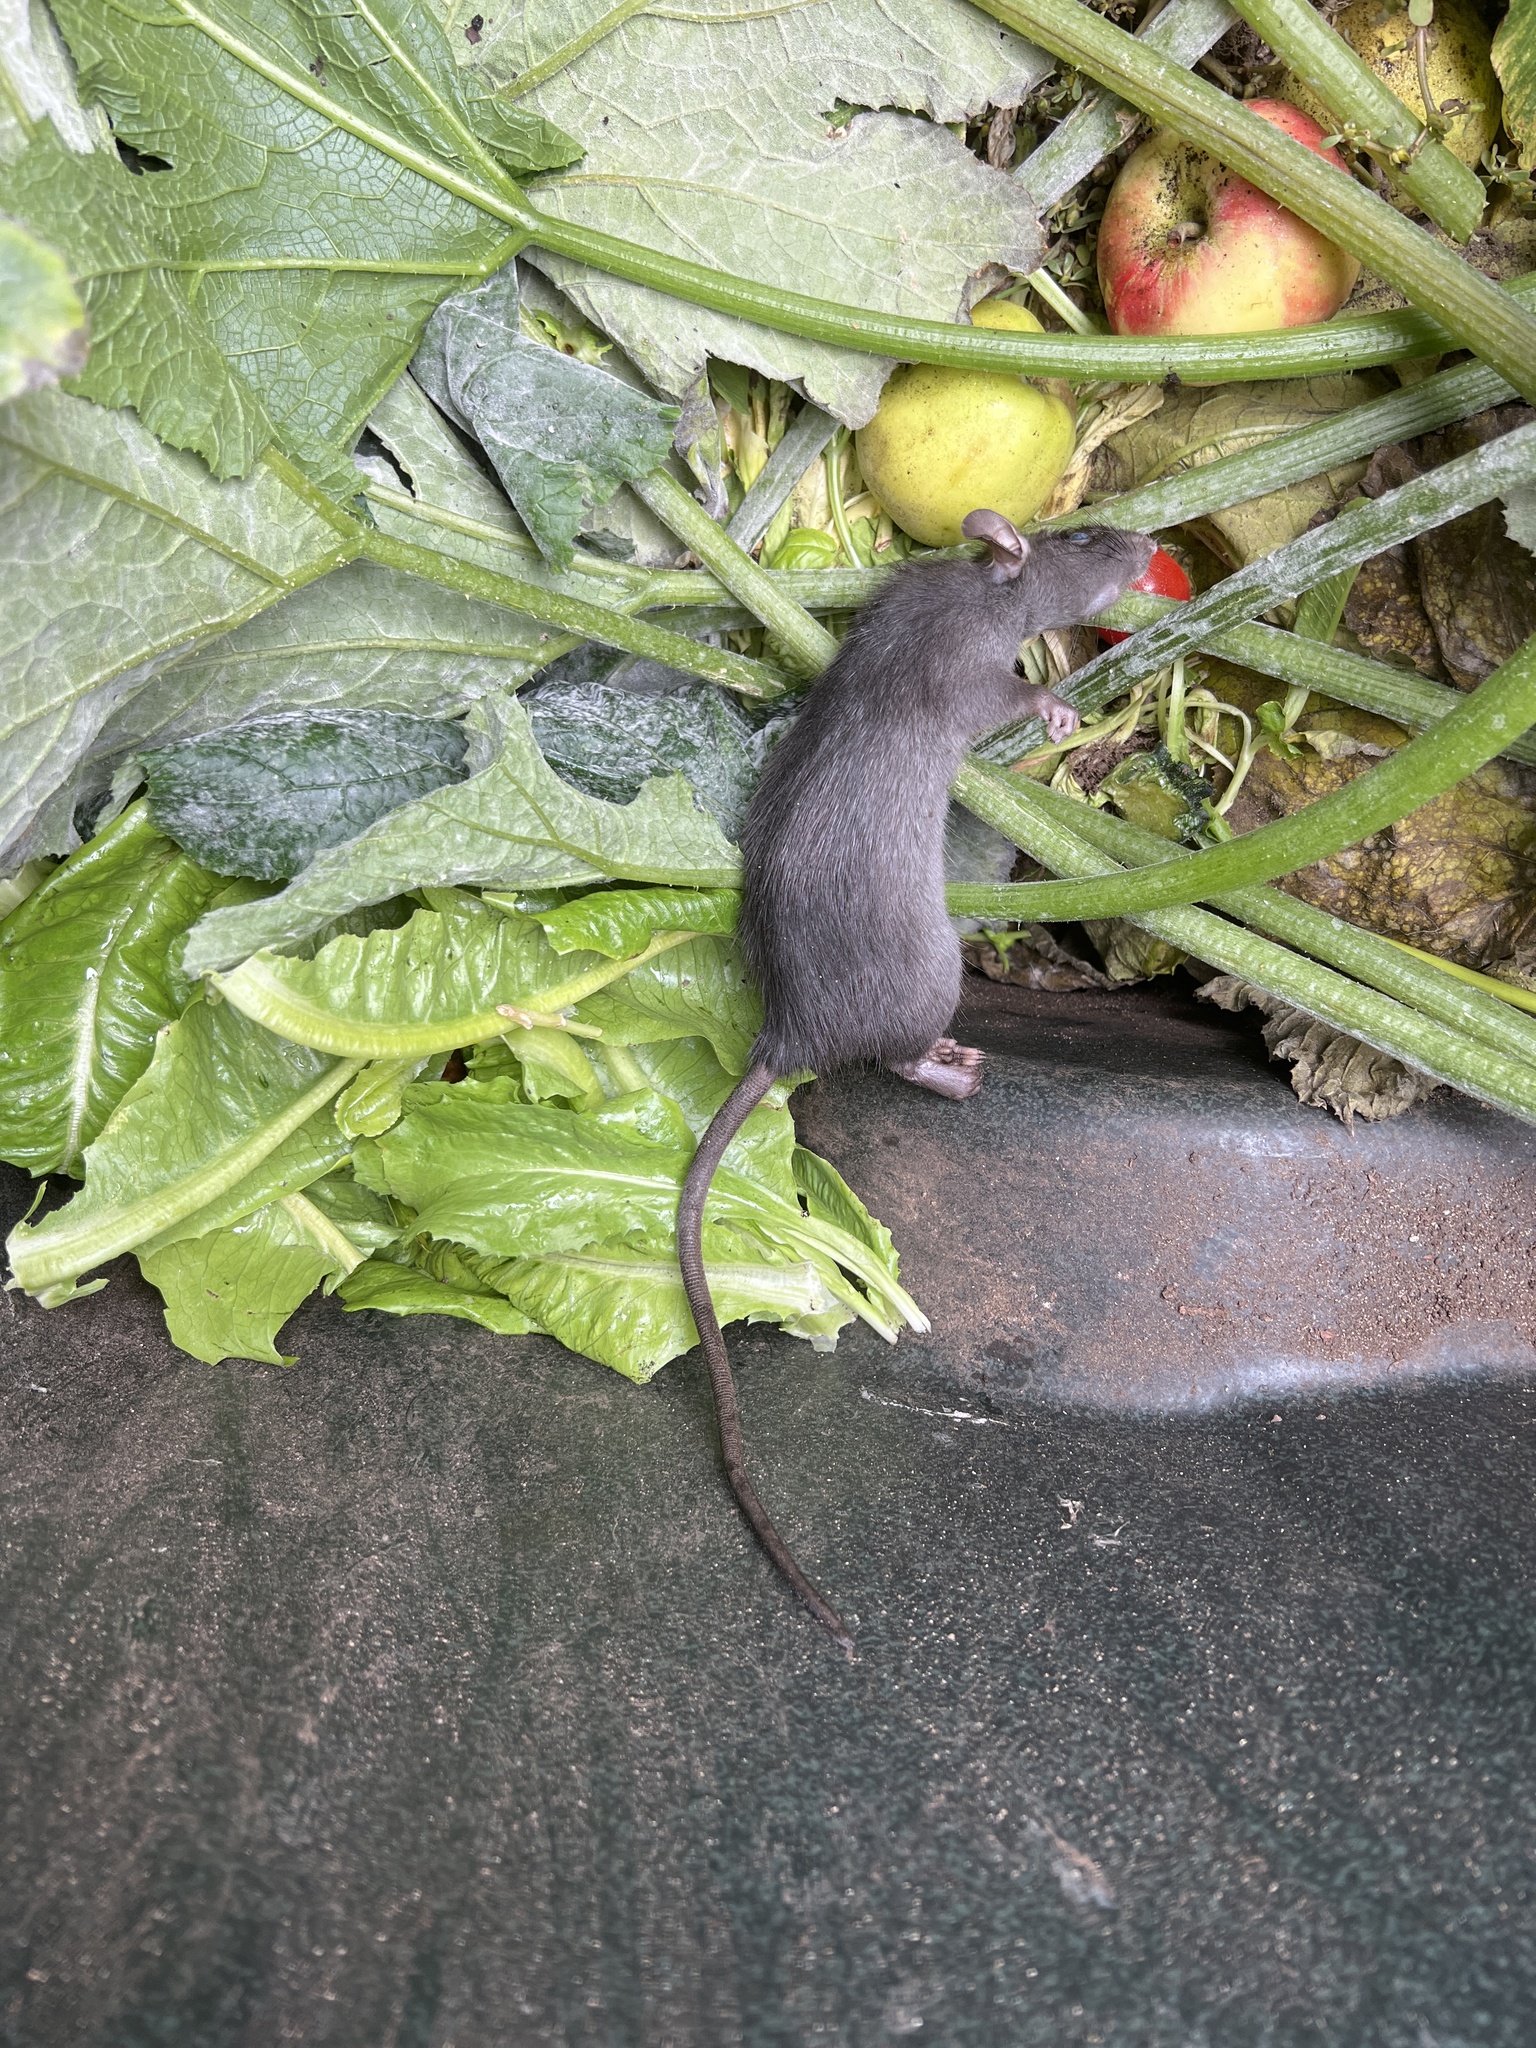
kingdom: Animalia
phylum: Chordata
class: Mammalia
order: Rodentia
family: Muridae
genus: Rattus
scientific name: Rattus rattus
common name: Black rat
